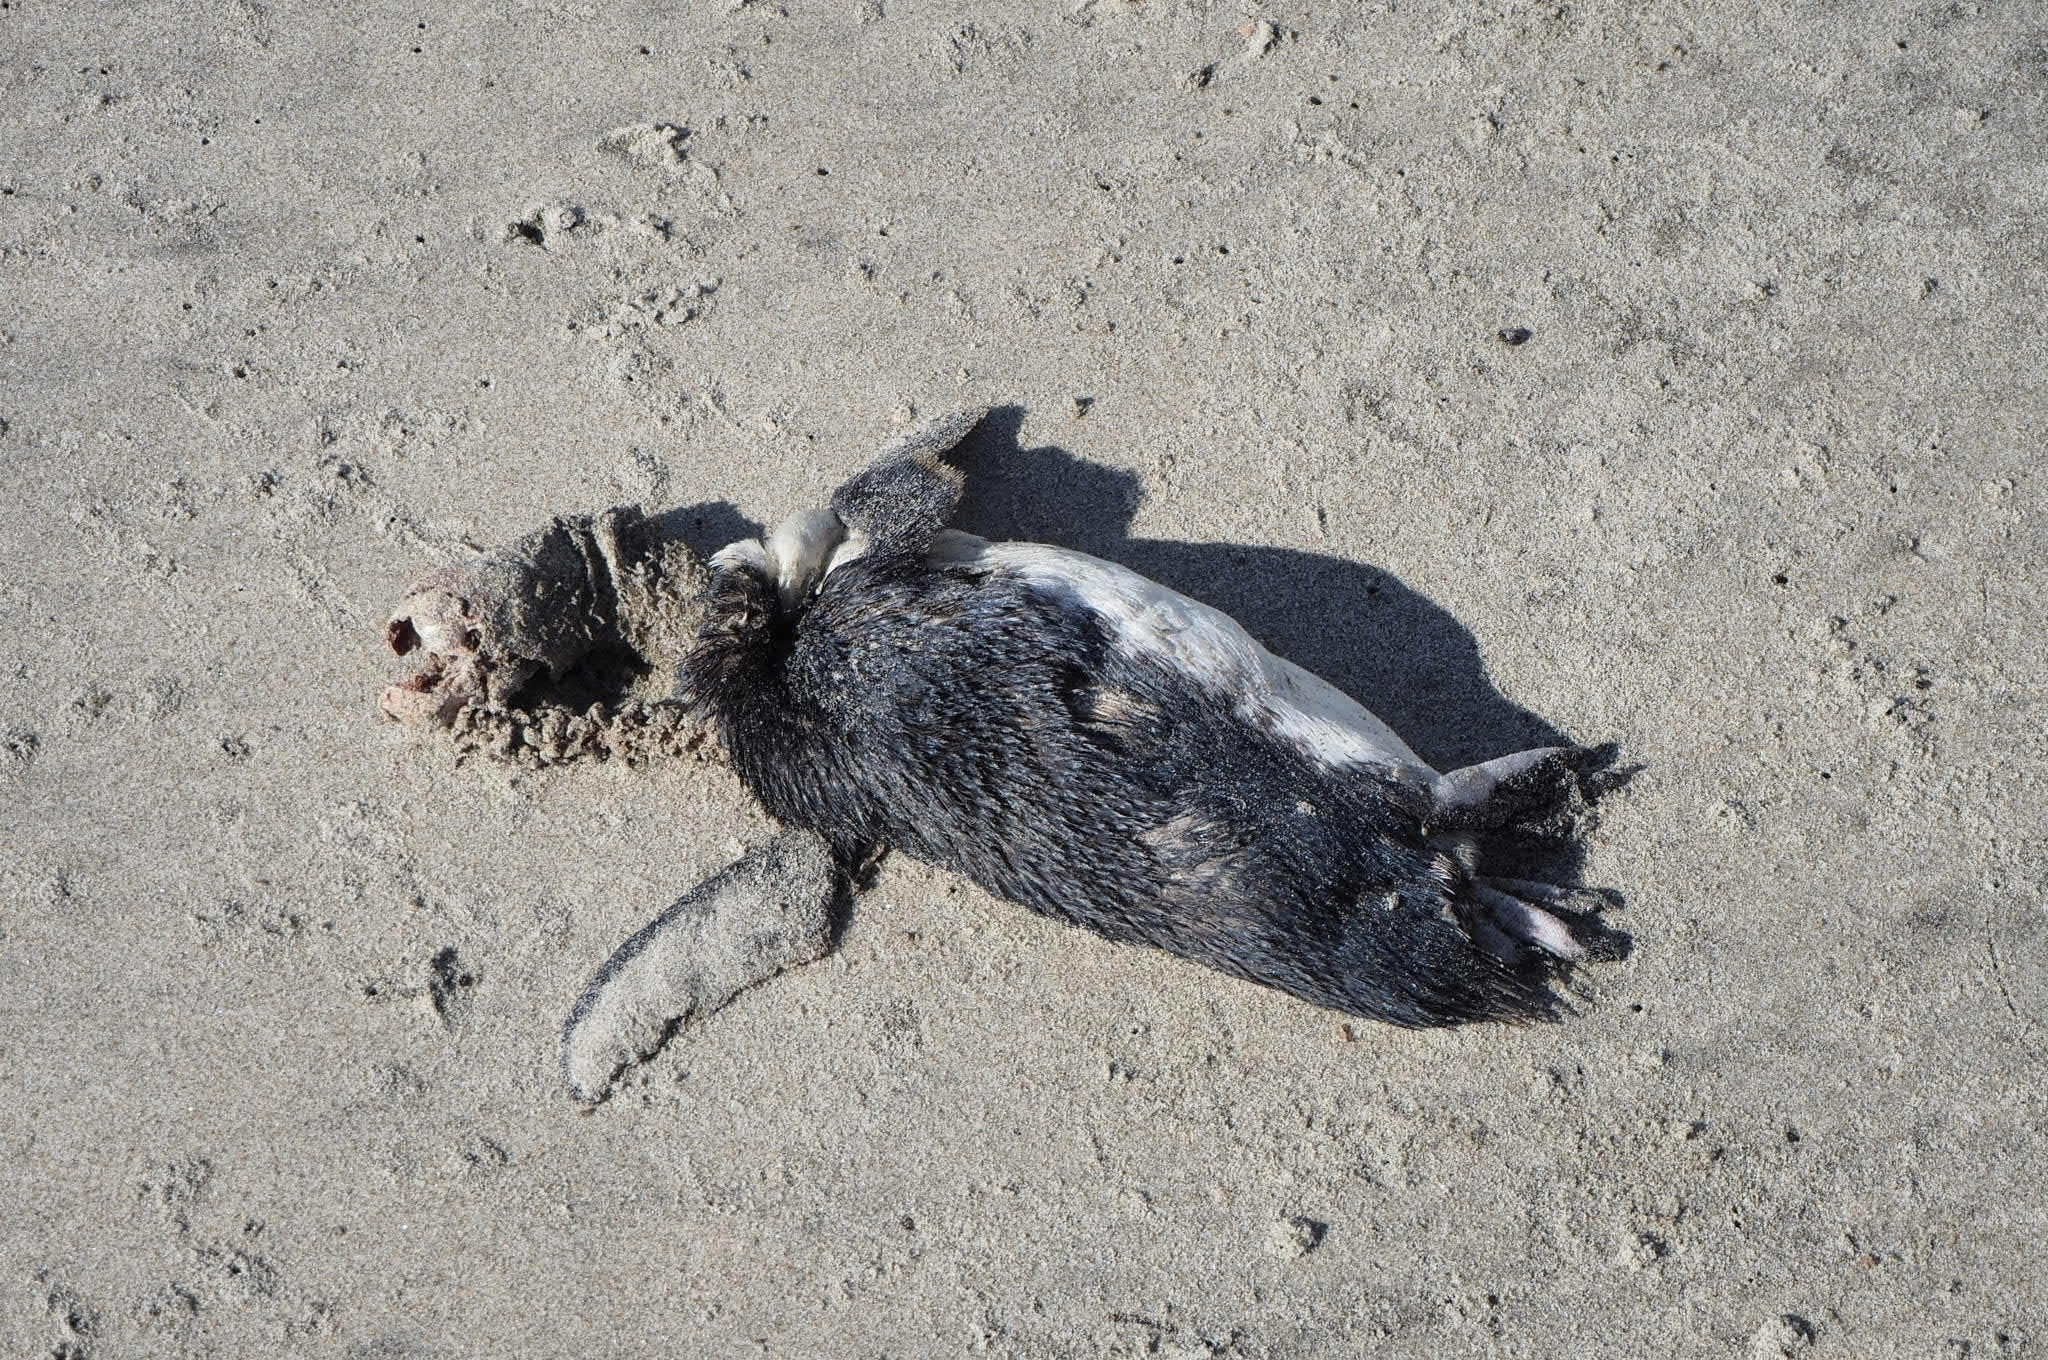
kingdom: Animalia
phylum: Chordata
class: Aves
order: Sphenisciformes
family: Spheniscidae
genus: Eudyptula
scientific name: Eudyptula minor
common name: Little penguin
